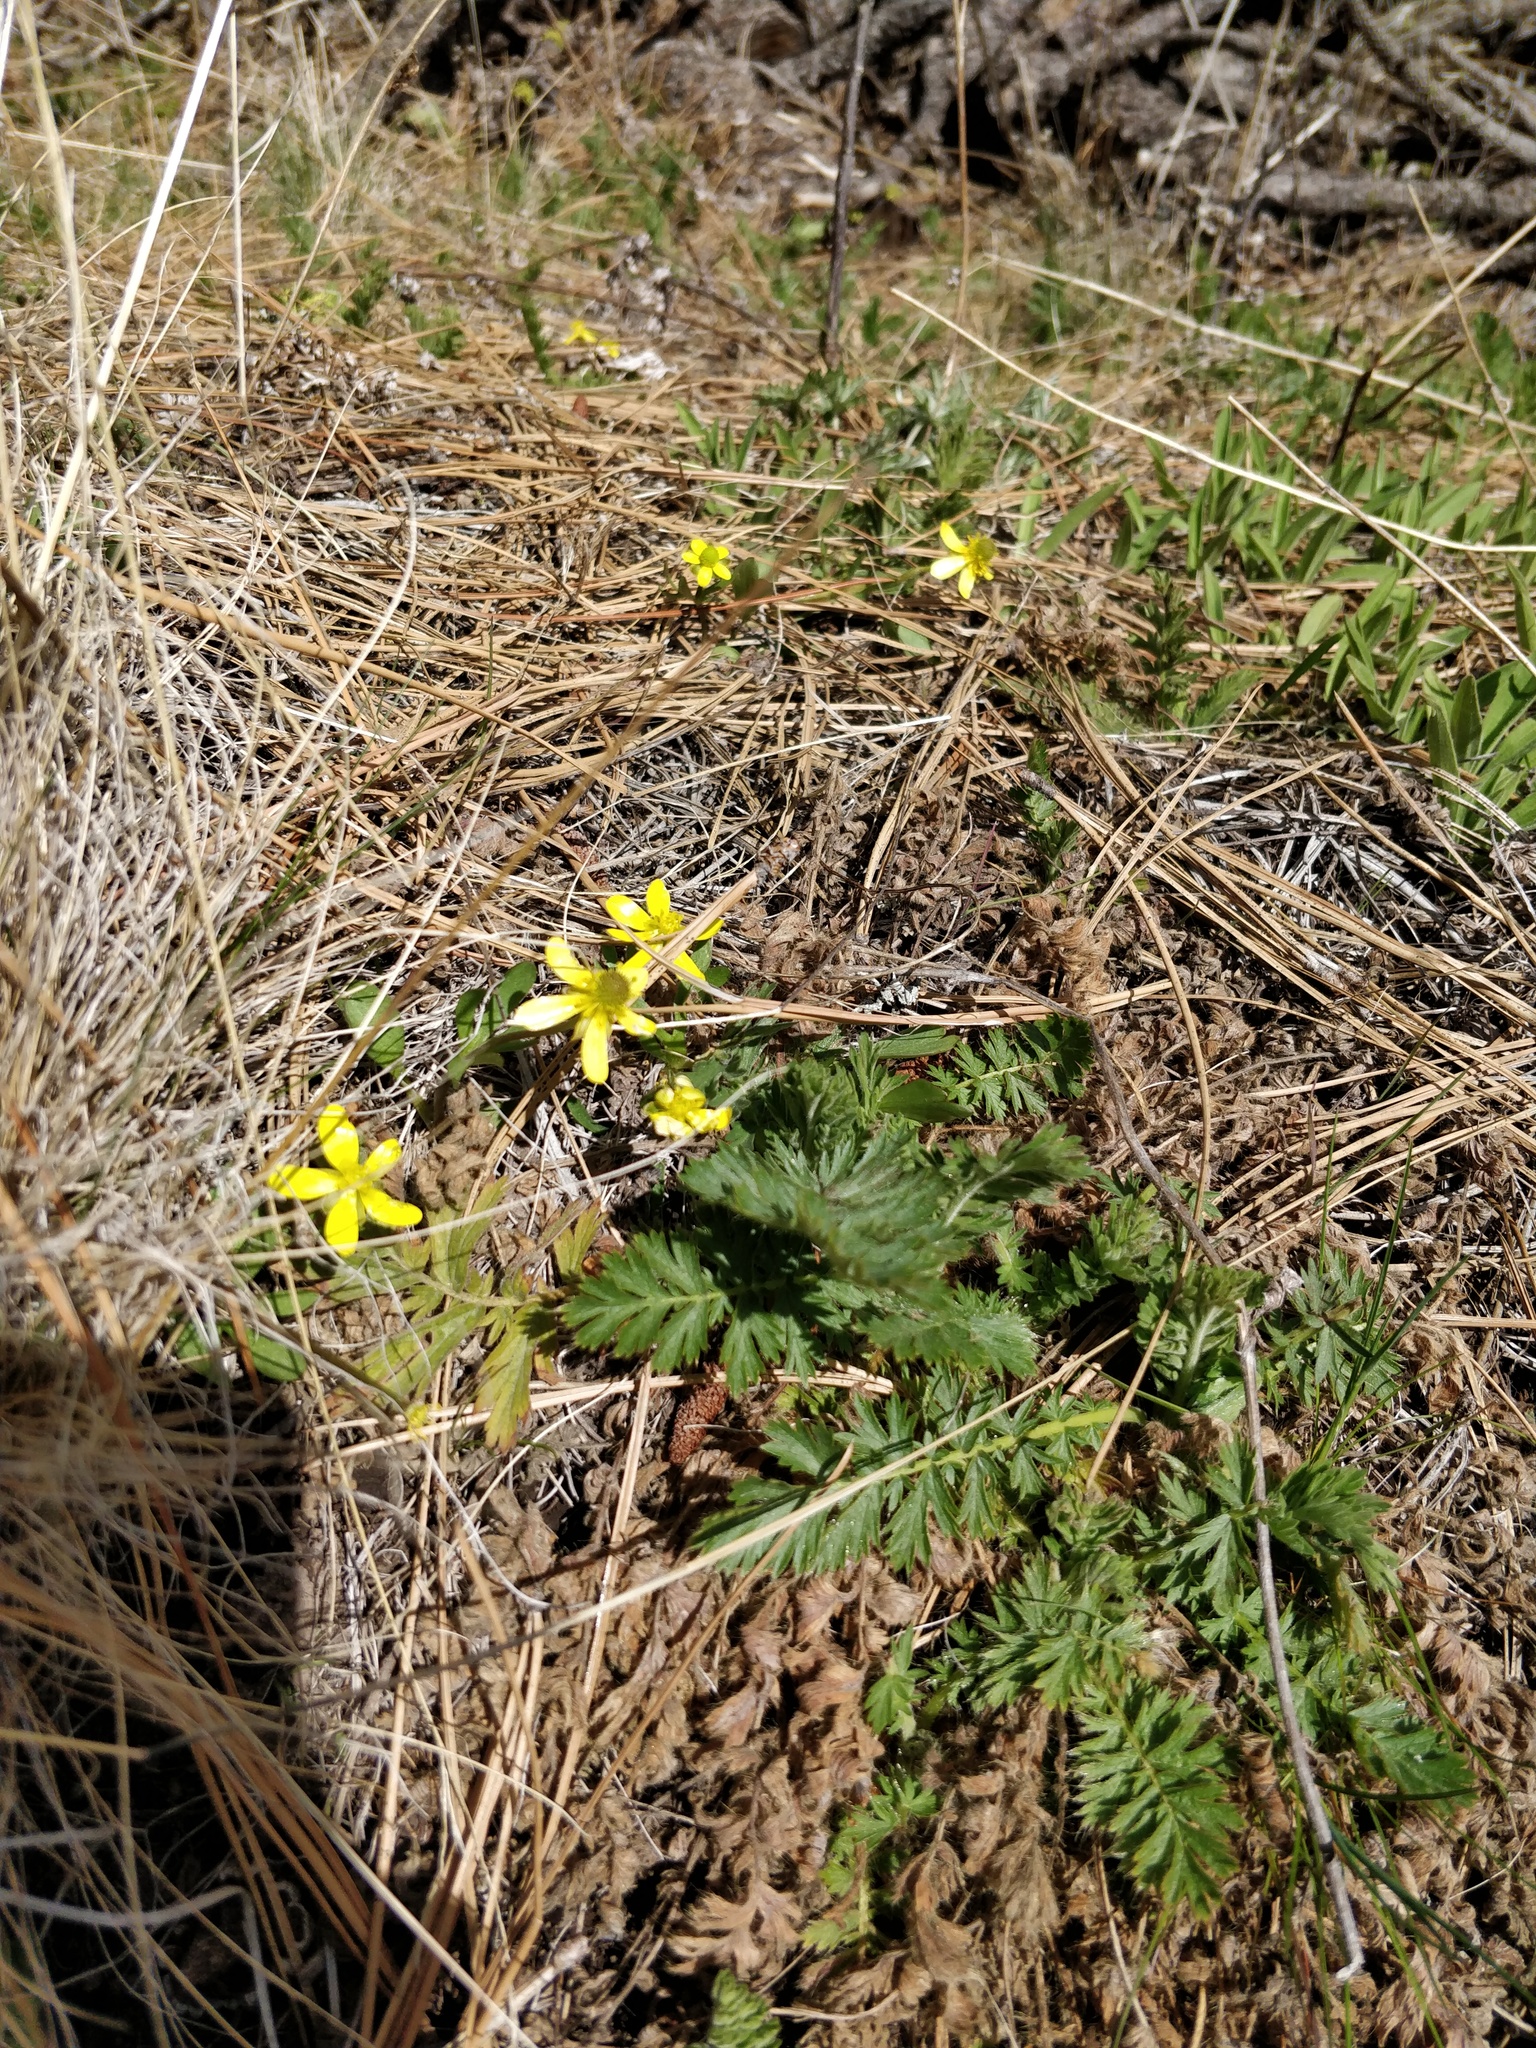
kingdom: Plantae
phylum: Tracheophyta
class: Magnoliopsida
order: Ranunculales
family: Ranunculaceae
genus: Ranunculus
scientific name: Ranunculus glaberrimus
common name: Sagebrush buttercup
